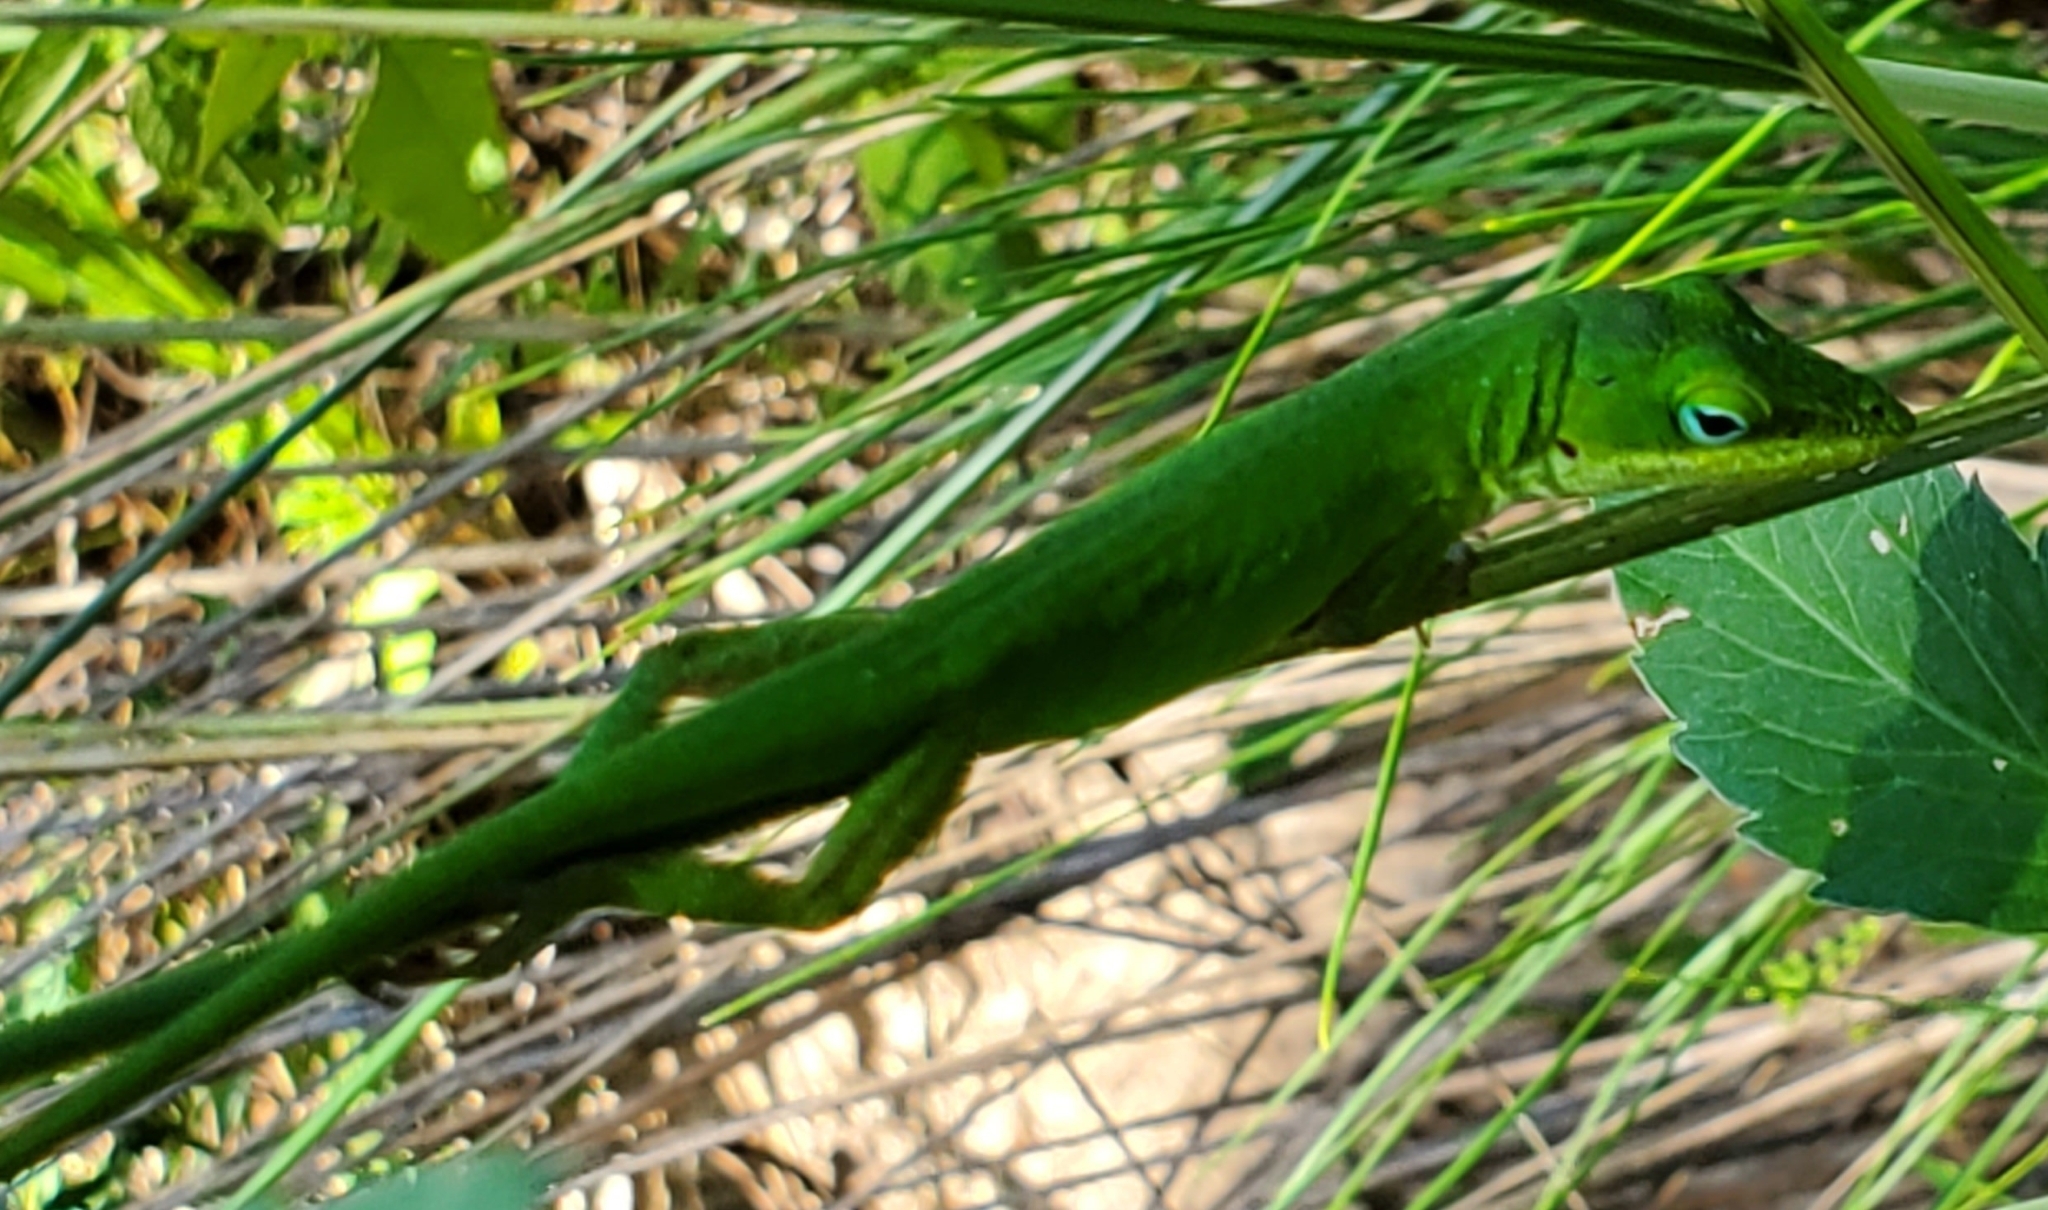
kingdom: Animalia
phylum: Chordata
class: Squamata
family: Dactyloidae
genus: Anolis
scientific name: Anolis carolinensis
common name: Green anole
